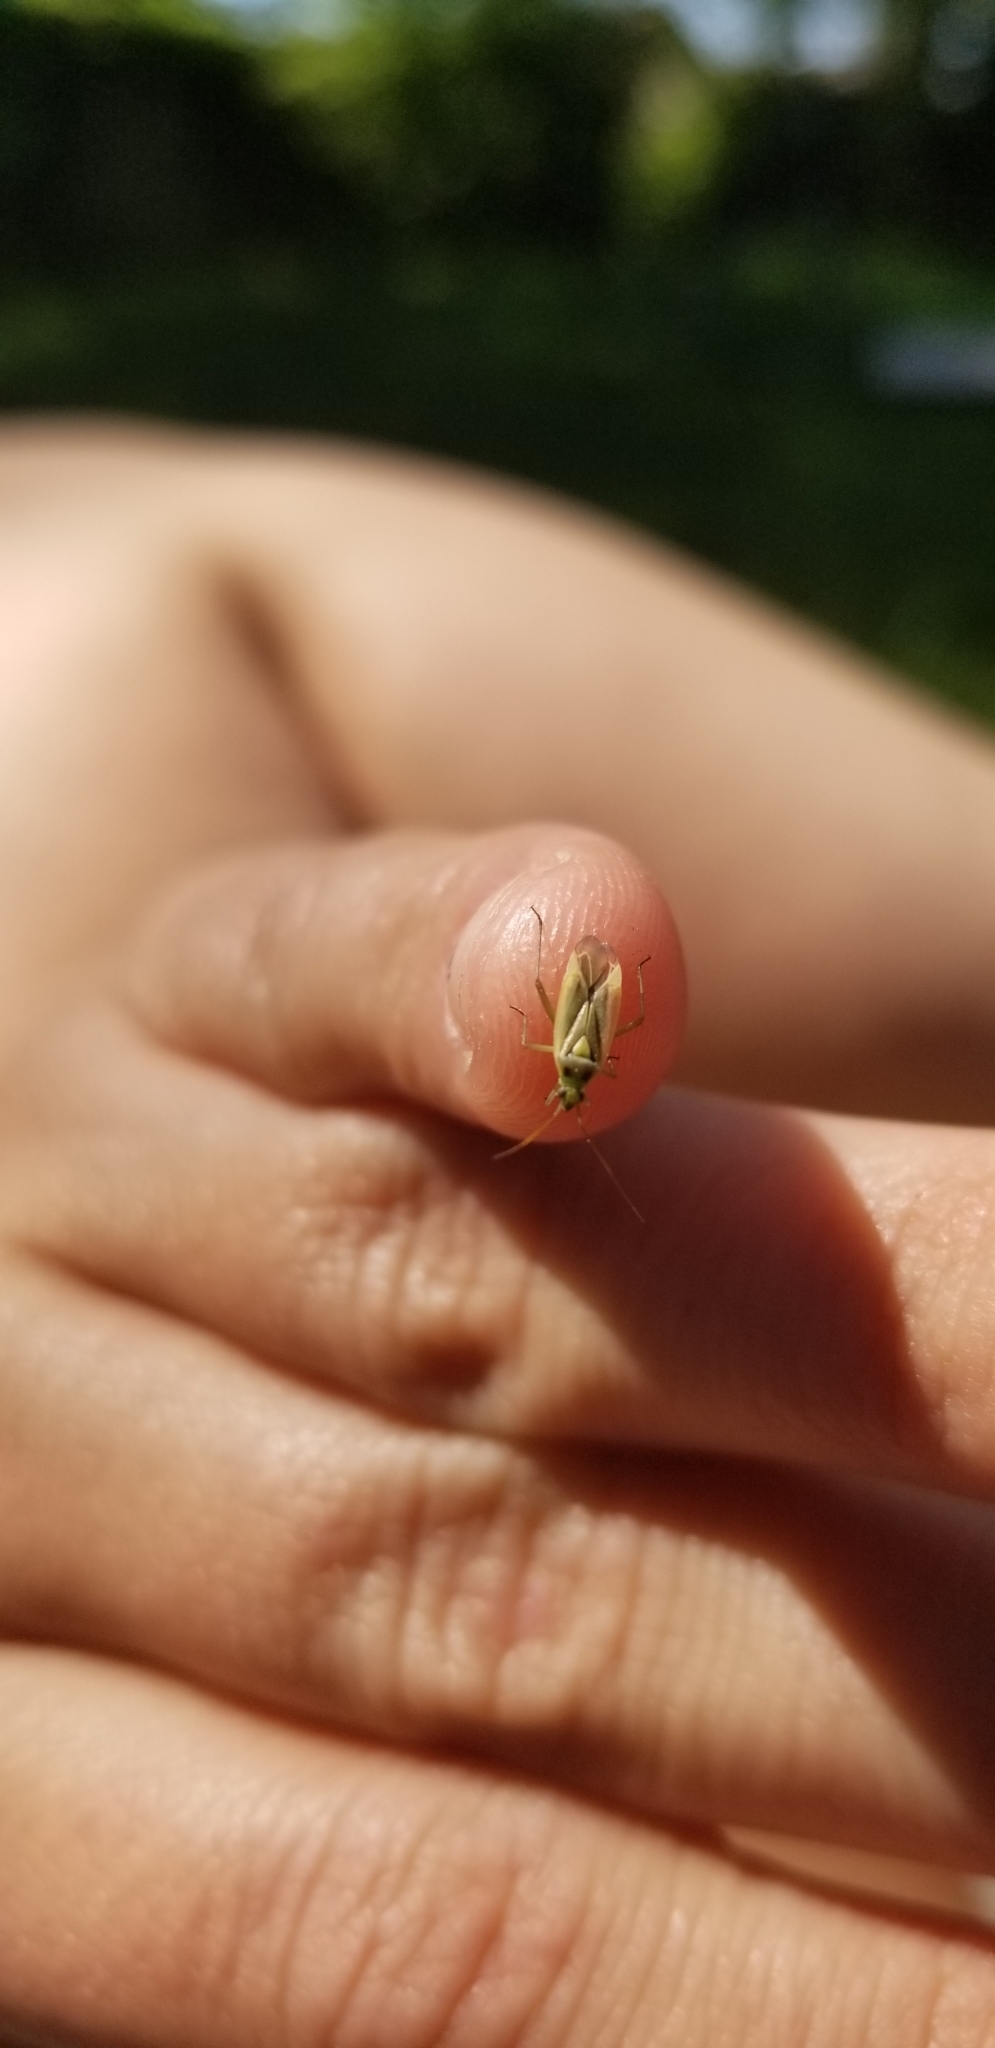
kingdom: Animalia
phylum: Arthropoda
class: Insecta
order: Hemiptera
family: Miridae
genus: Stenotus
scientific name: Stenotus binotatus
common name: Plant bug
